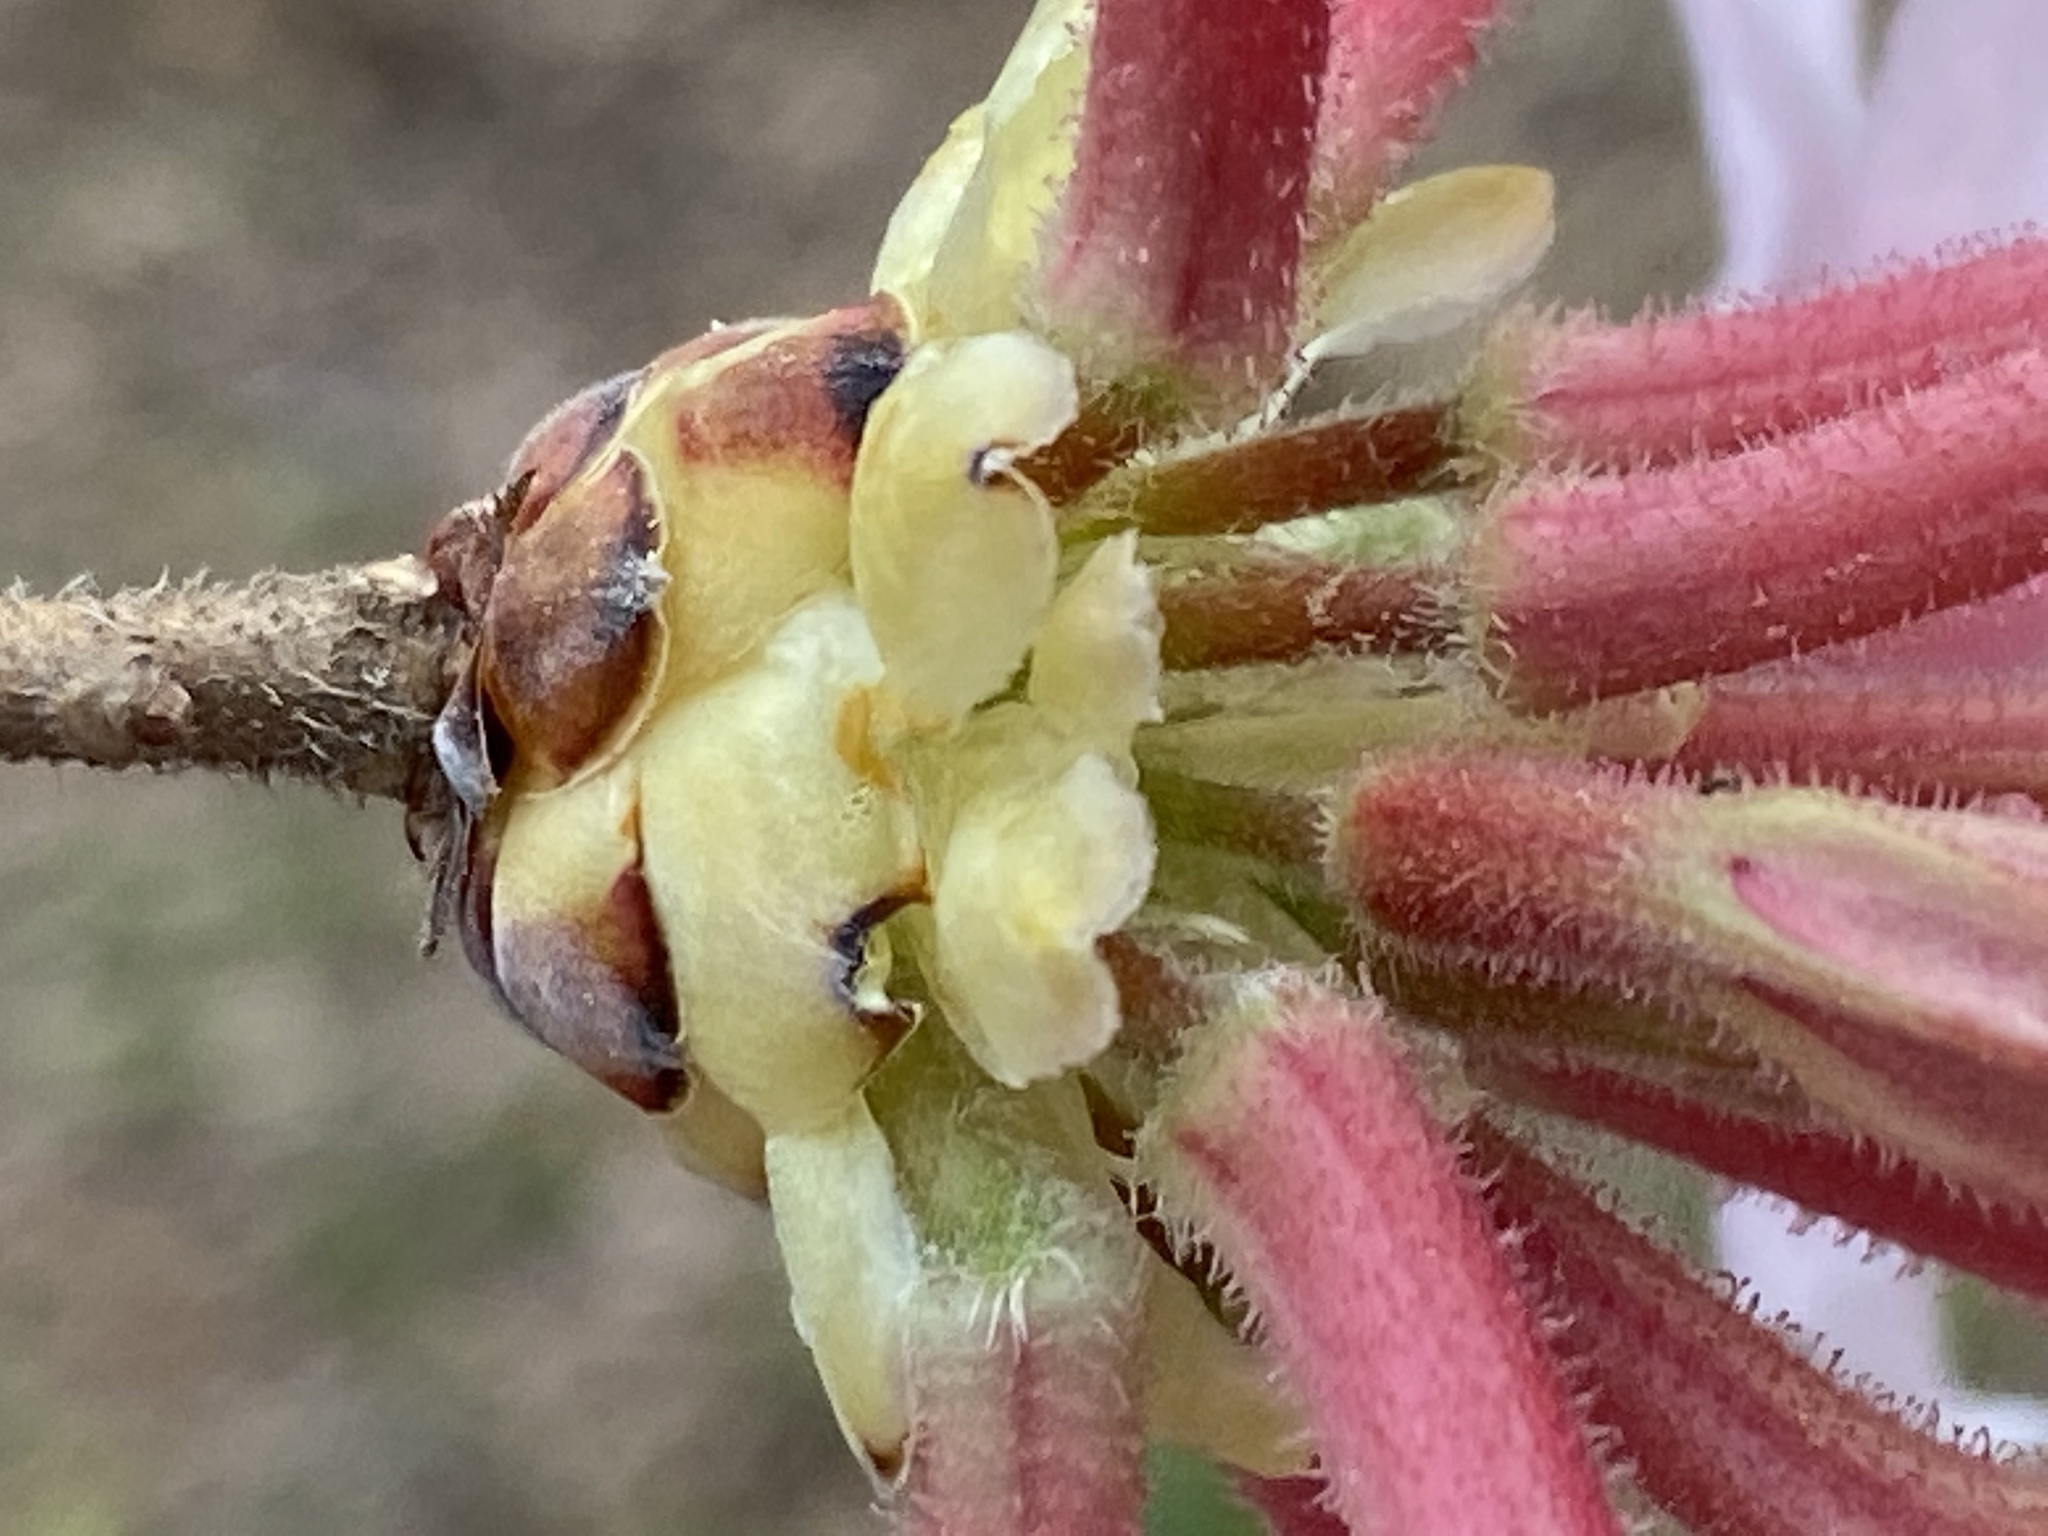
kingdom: Plantae
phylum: Tracheophyta
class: Magnoliopsida
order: Ericales
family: Ericaceae
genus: Rhododendron
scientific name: Rhododendron canescens
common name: Mountain azalea
